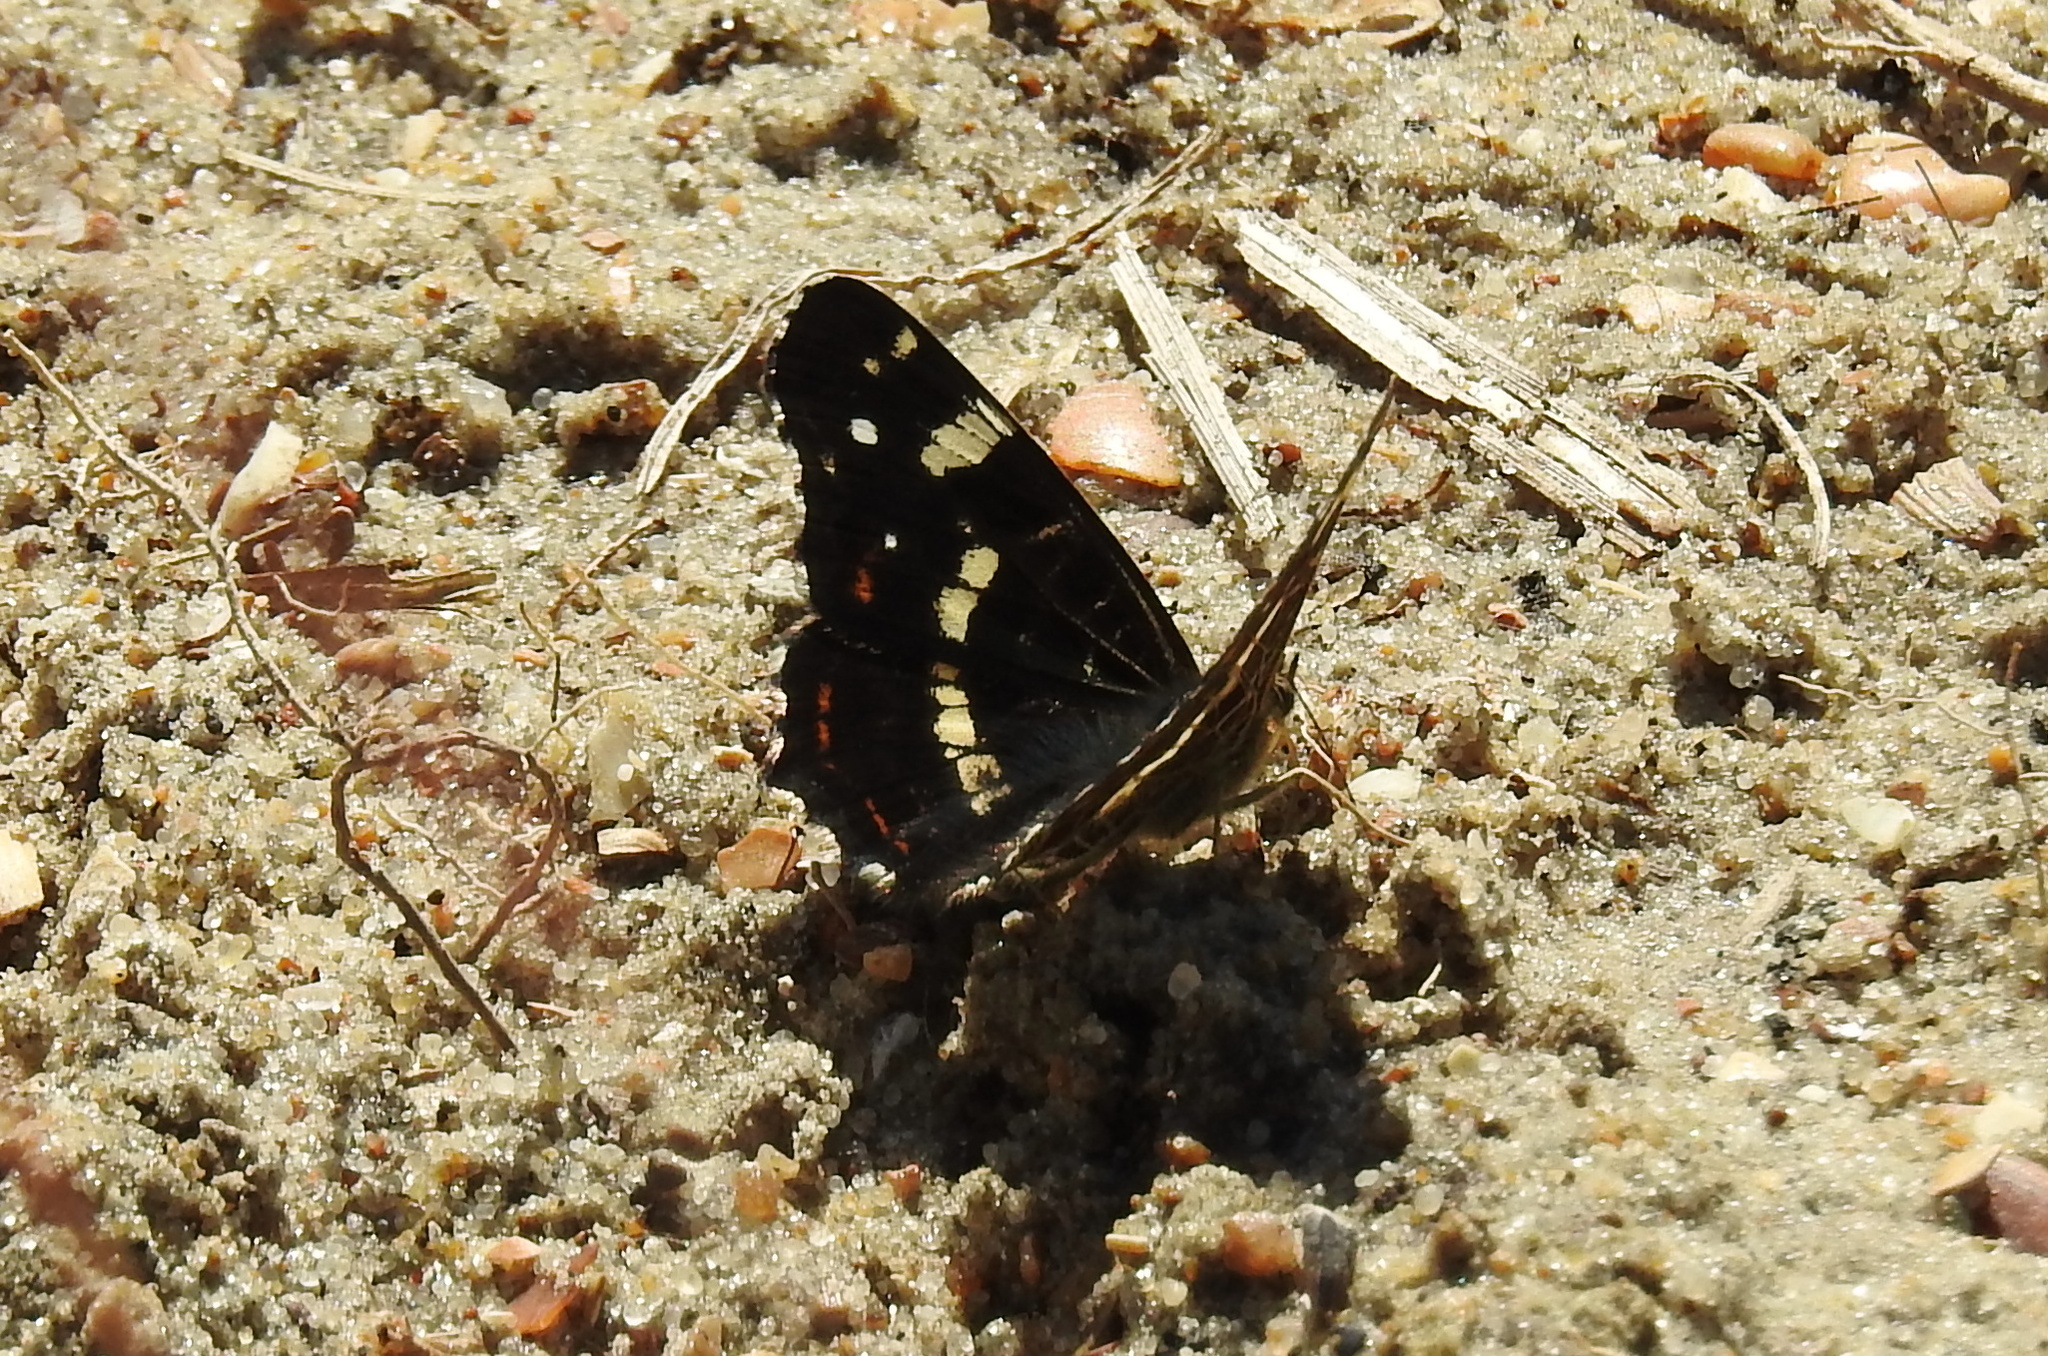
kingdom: Animalia
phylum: Arthropoda
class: Insecta
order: Lepidoptera
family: Nymphalidae
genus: Araschnia
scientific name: Araschnia levana
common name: Map butterfly
